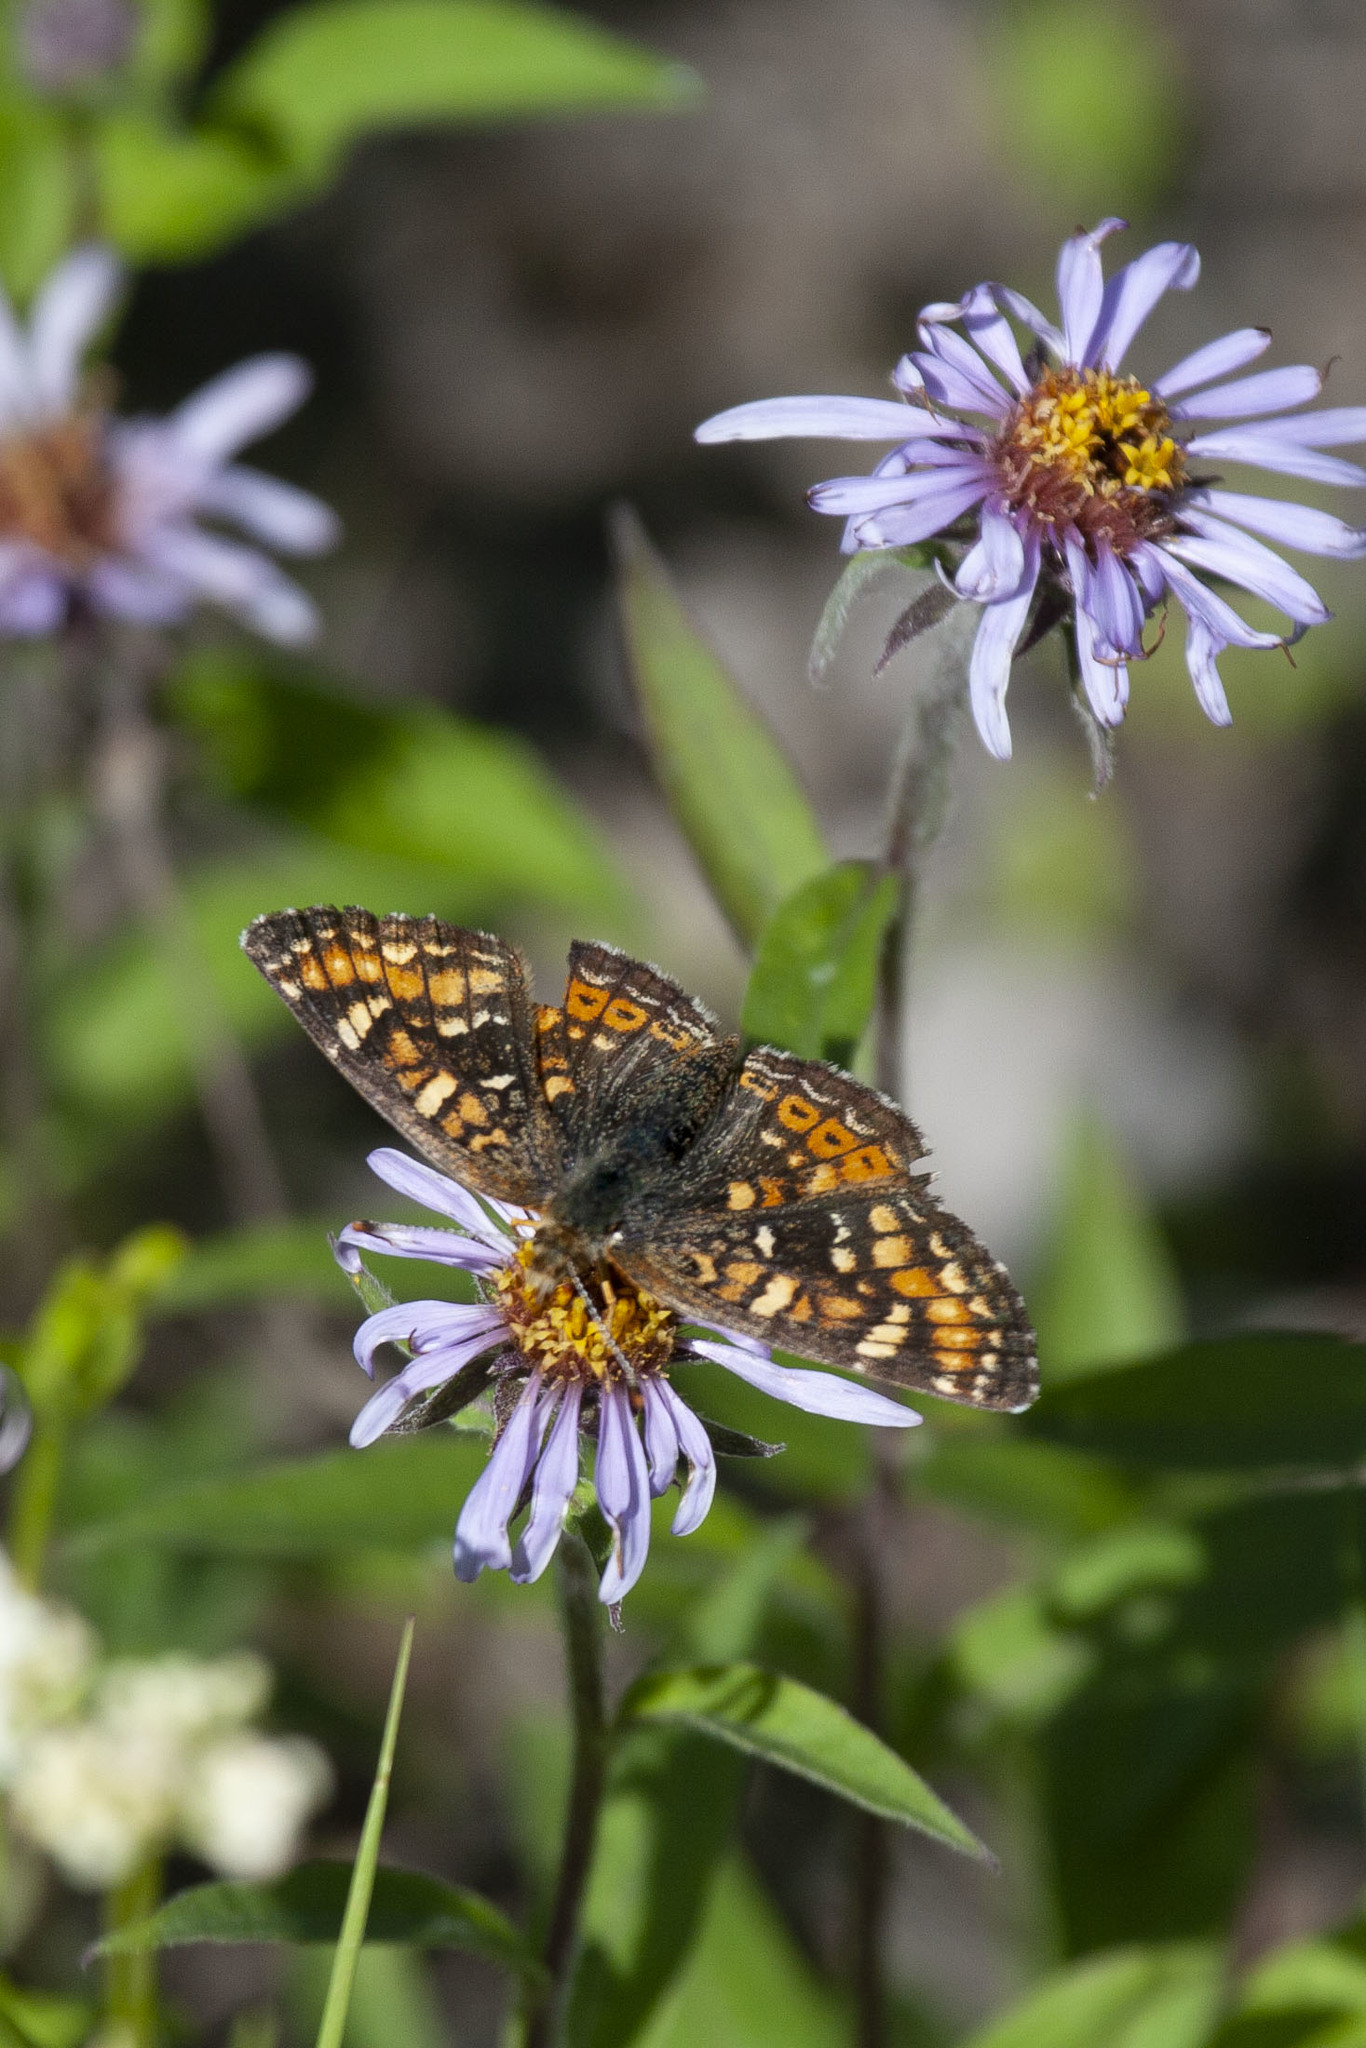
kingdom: Animalia
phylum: Arthropoda
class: Insecta
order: Lepidoptera
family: Nymphalidae
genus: Phyciodes
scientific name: Phyciodes tharos
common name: Pearl crescent
